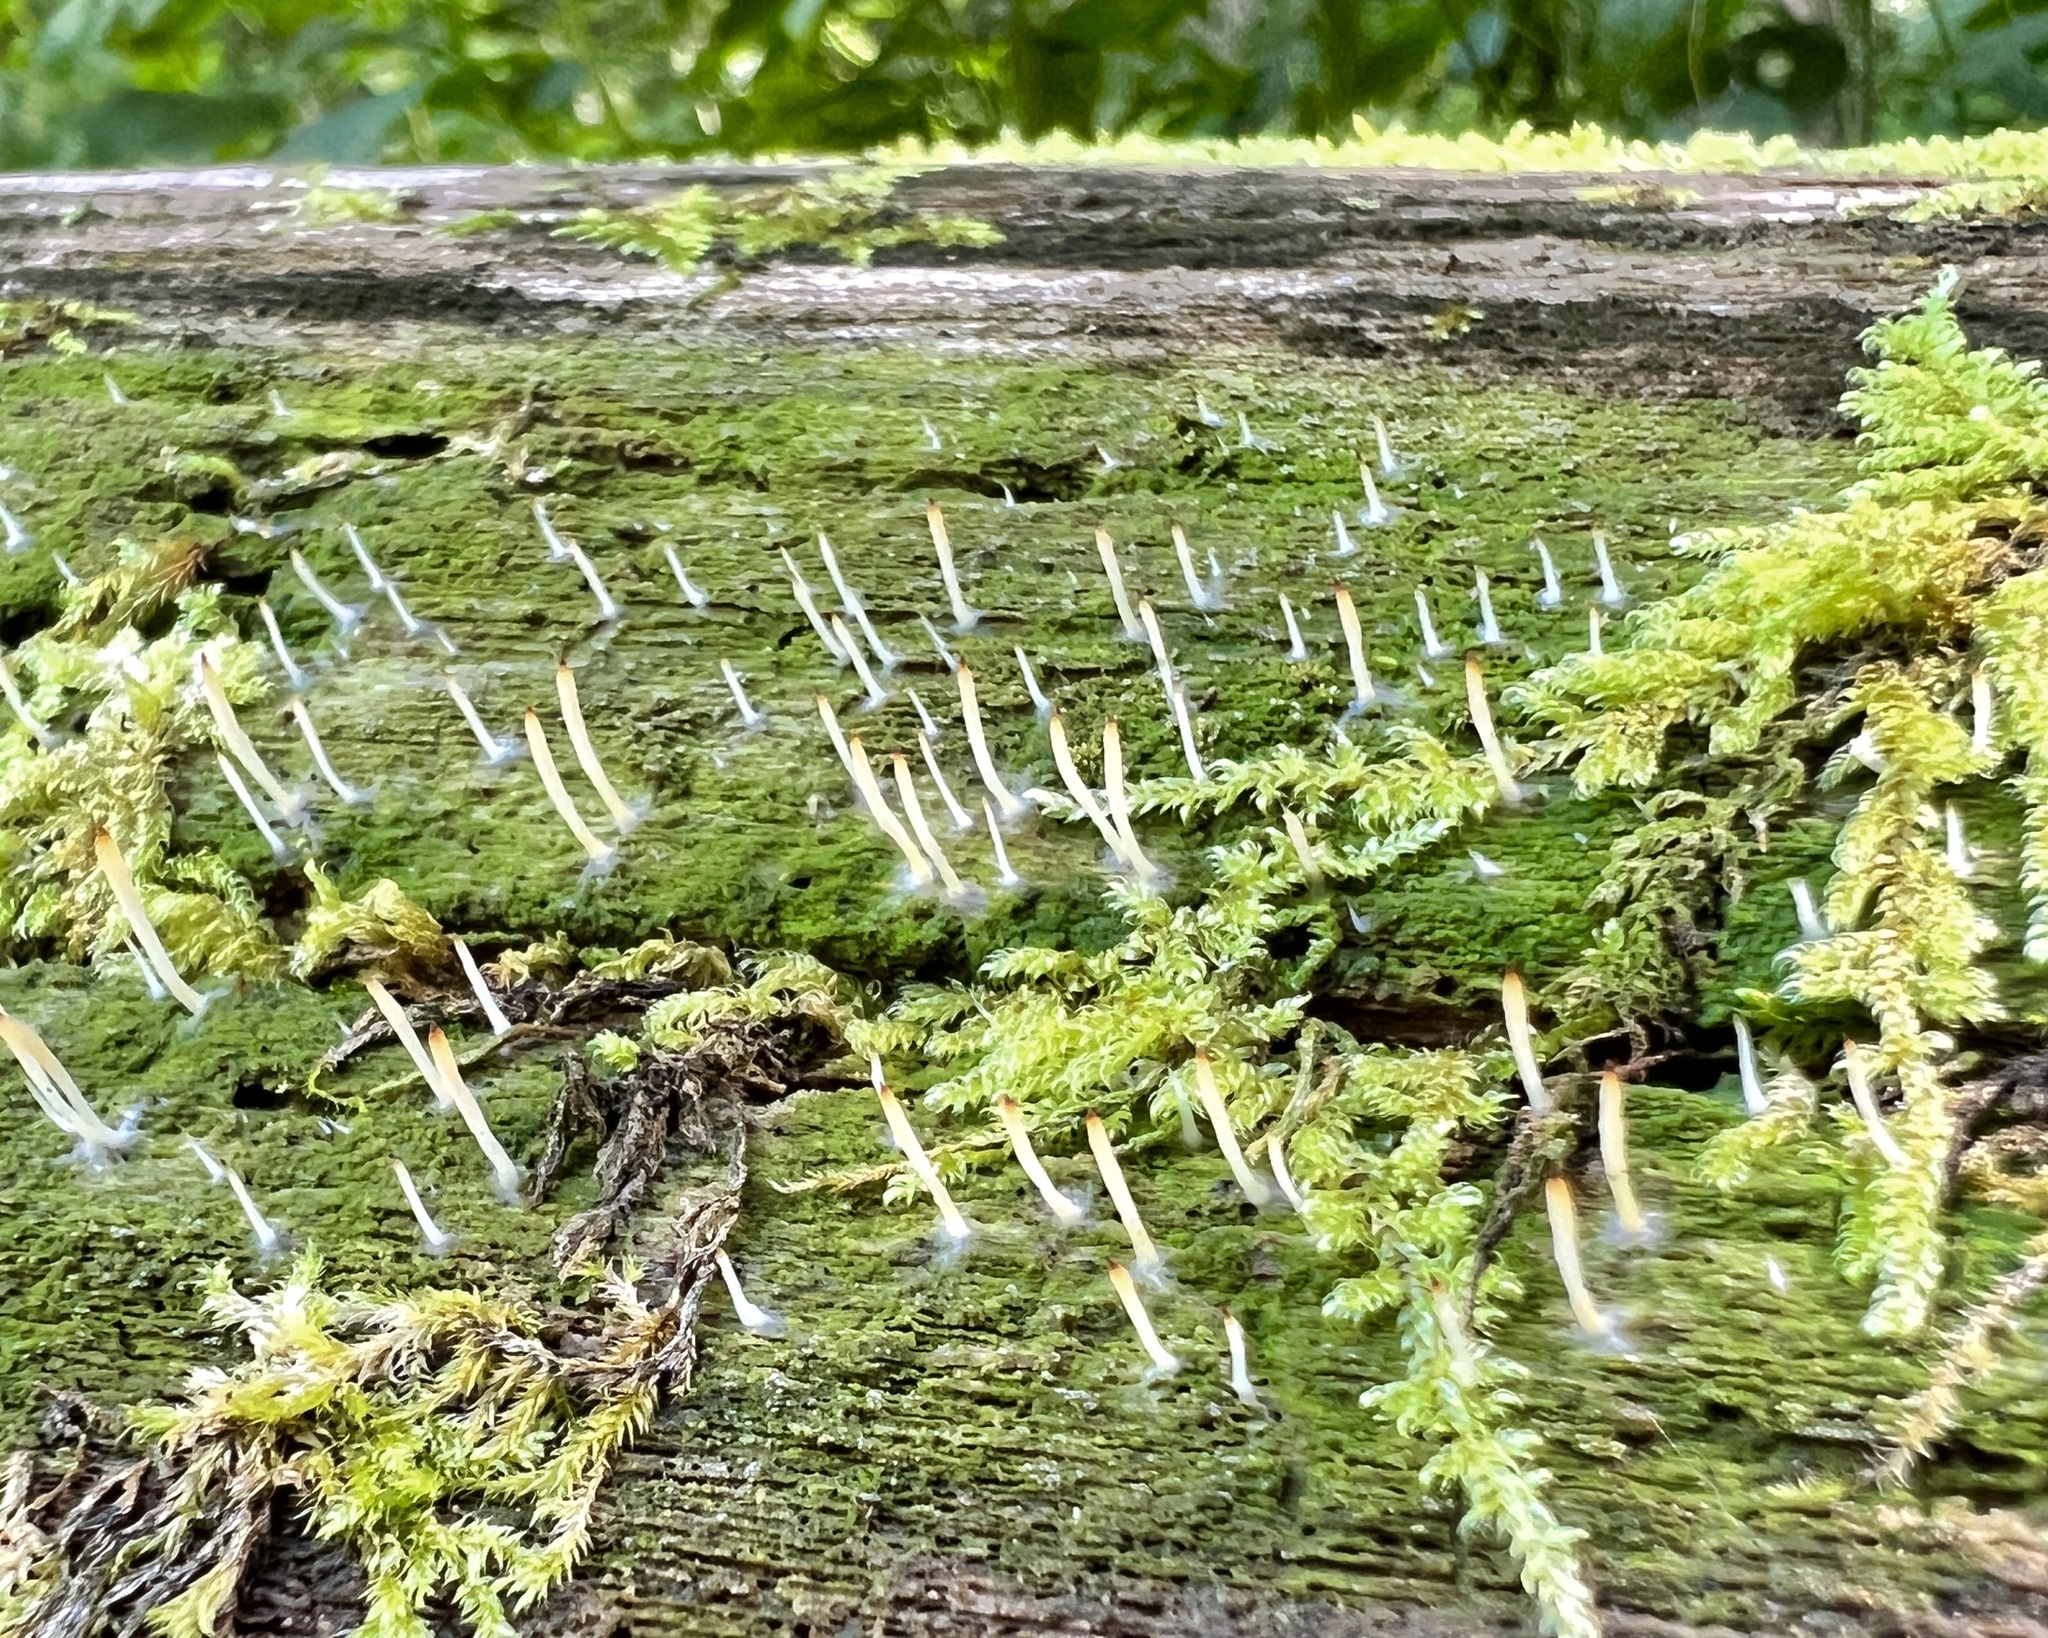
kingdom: Fungi
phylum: Basidiomycota
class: Agaricomycetes
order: Cantharellales
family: Hydnaceae
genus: Multiclavula
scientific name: Multiclavula mucida
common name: White green-algae coral
